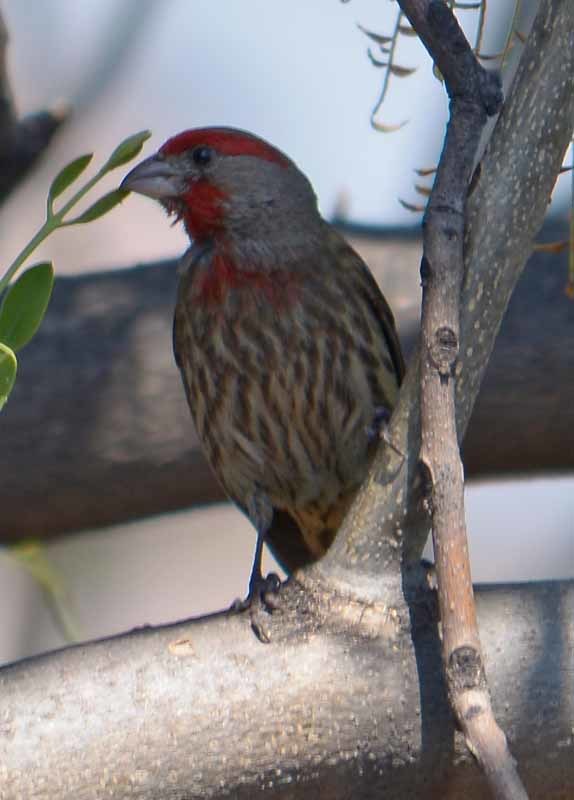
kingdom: Animalia
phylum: Chordata
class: Aves
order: Passeriformes
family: Fringillidae
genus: Haemorhous
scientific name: Haemorhous mexicanus
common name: House finch
